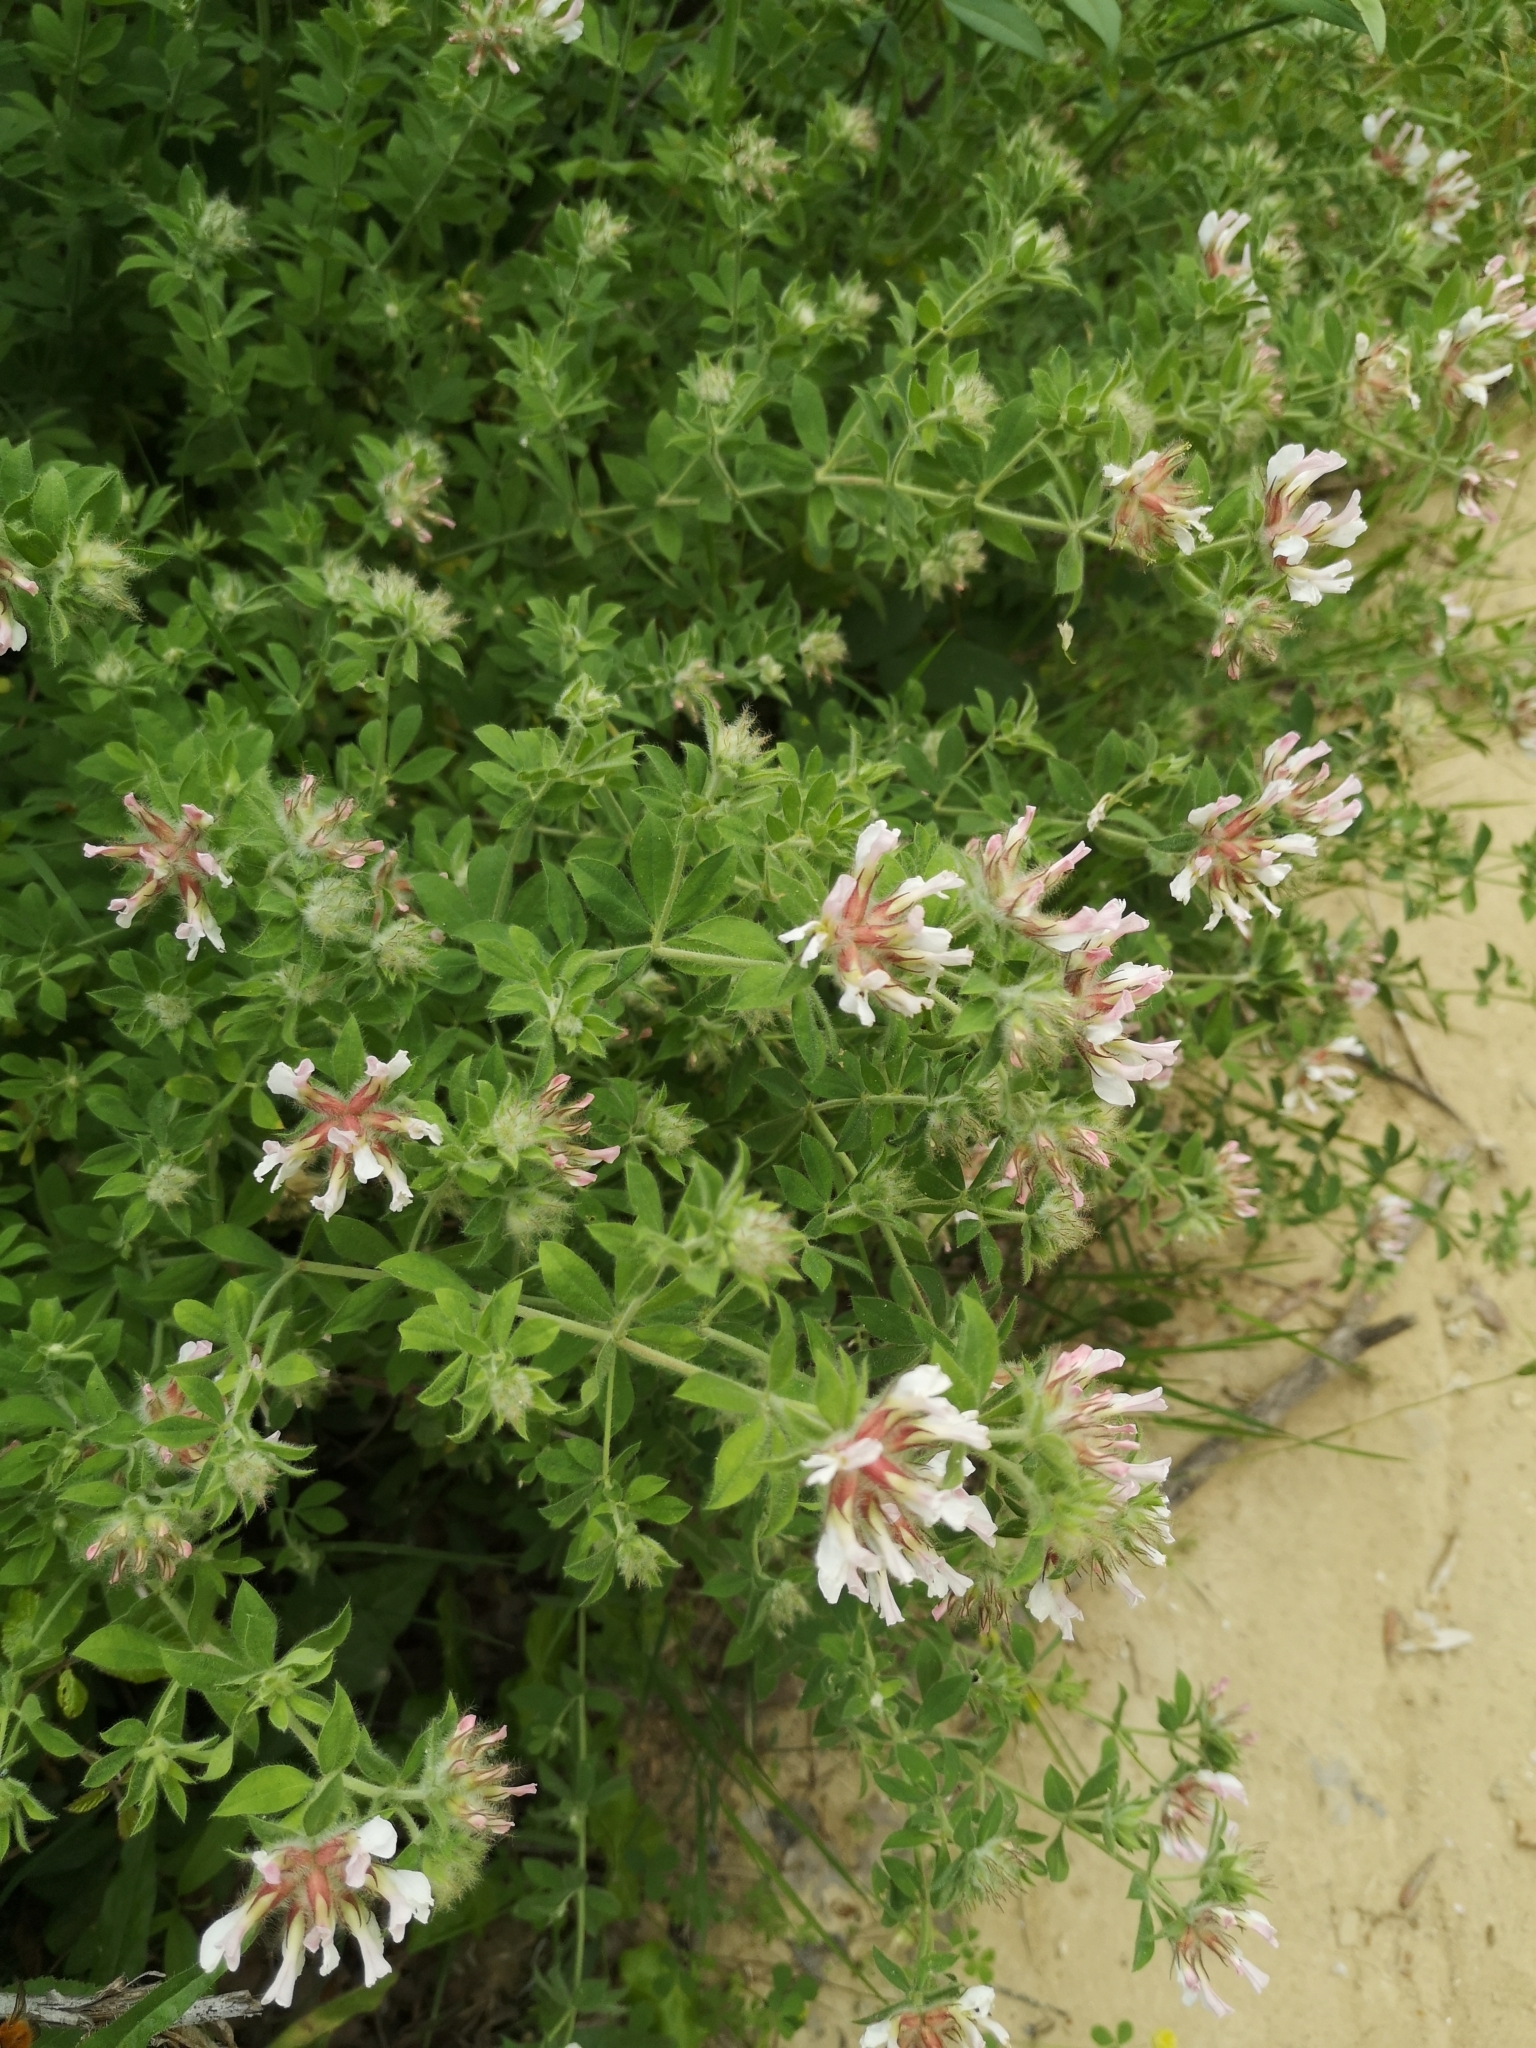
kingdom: Plantae
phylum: Tracheophyta
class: Magnoliopsida
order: Fabales
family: Fabaceae
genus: Lotus
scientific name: Lotus hirsutus
